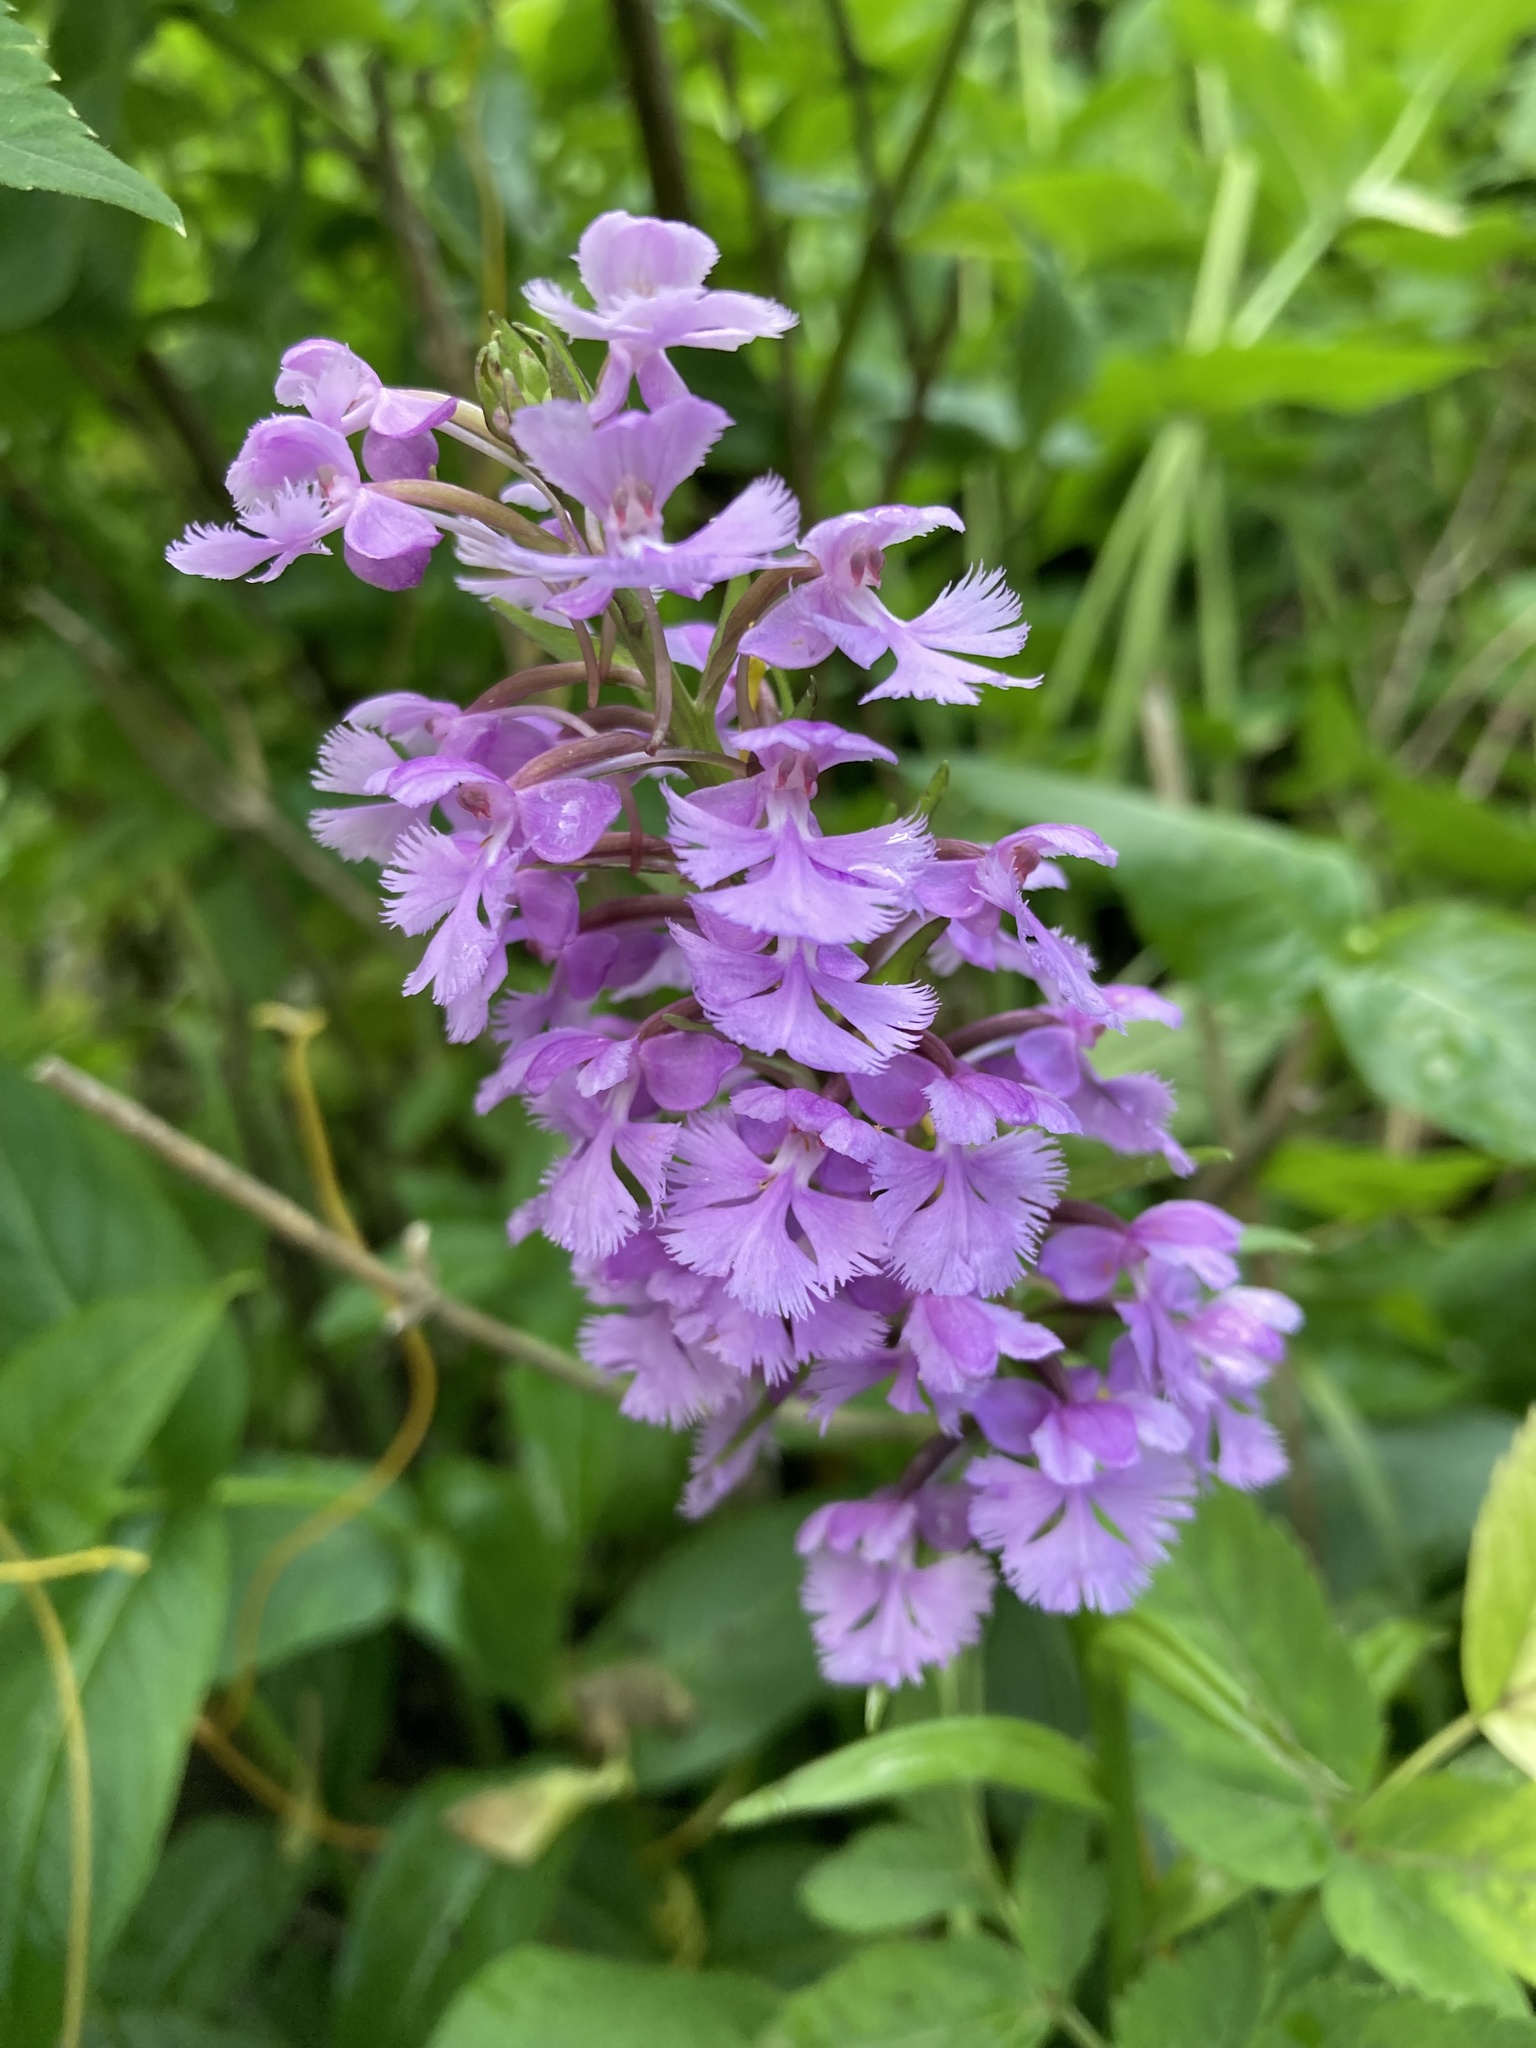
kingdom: Plantae
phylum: Tracheophyta
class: Liliopsida
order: Asparagales
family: Orchidaceae
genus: Platanthera
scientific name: Platanthera psycodes
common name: Lesser purple fringed orchid
